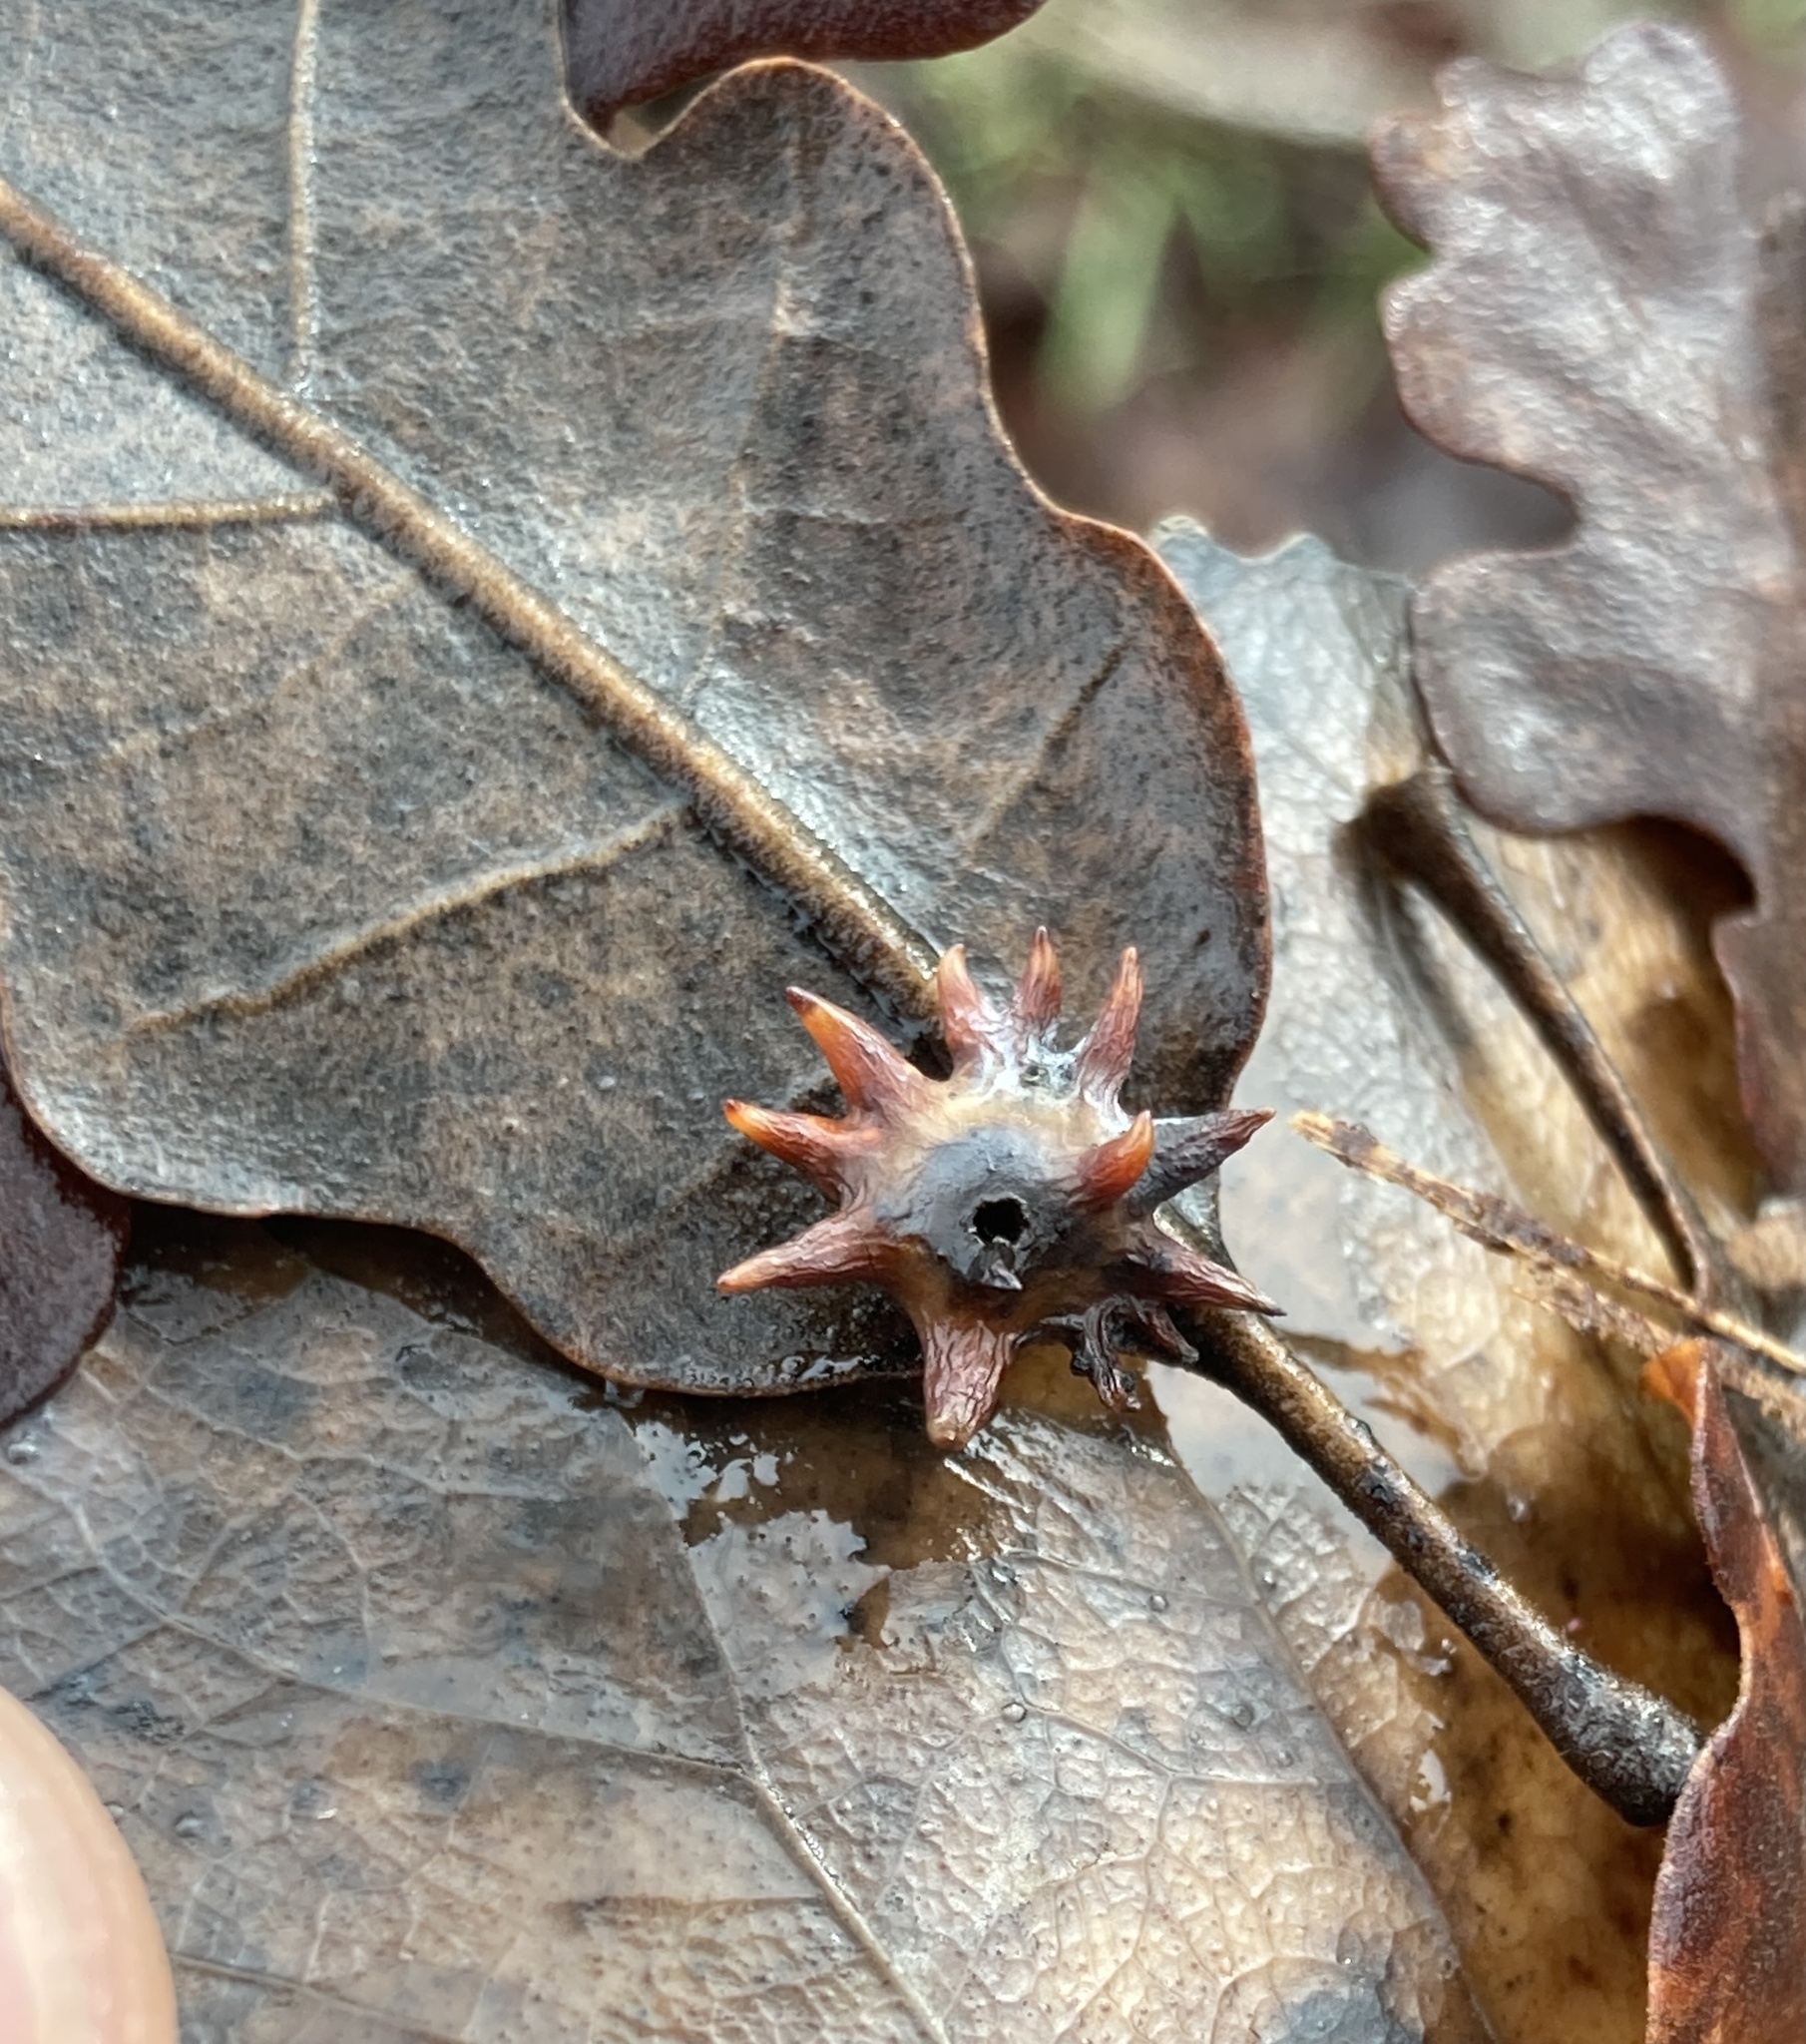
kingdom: Animalia
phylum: Arthropoda
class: Insecta
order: Hymenoptera
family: Cynipidae
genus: Cynips
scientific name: Cynips douglasi
